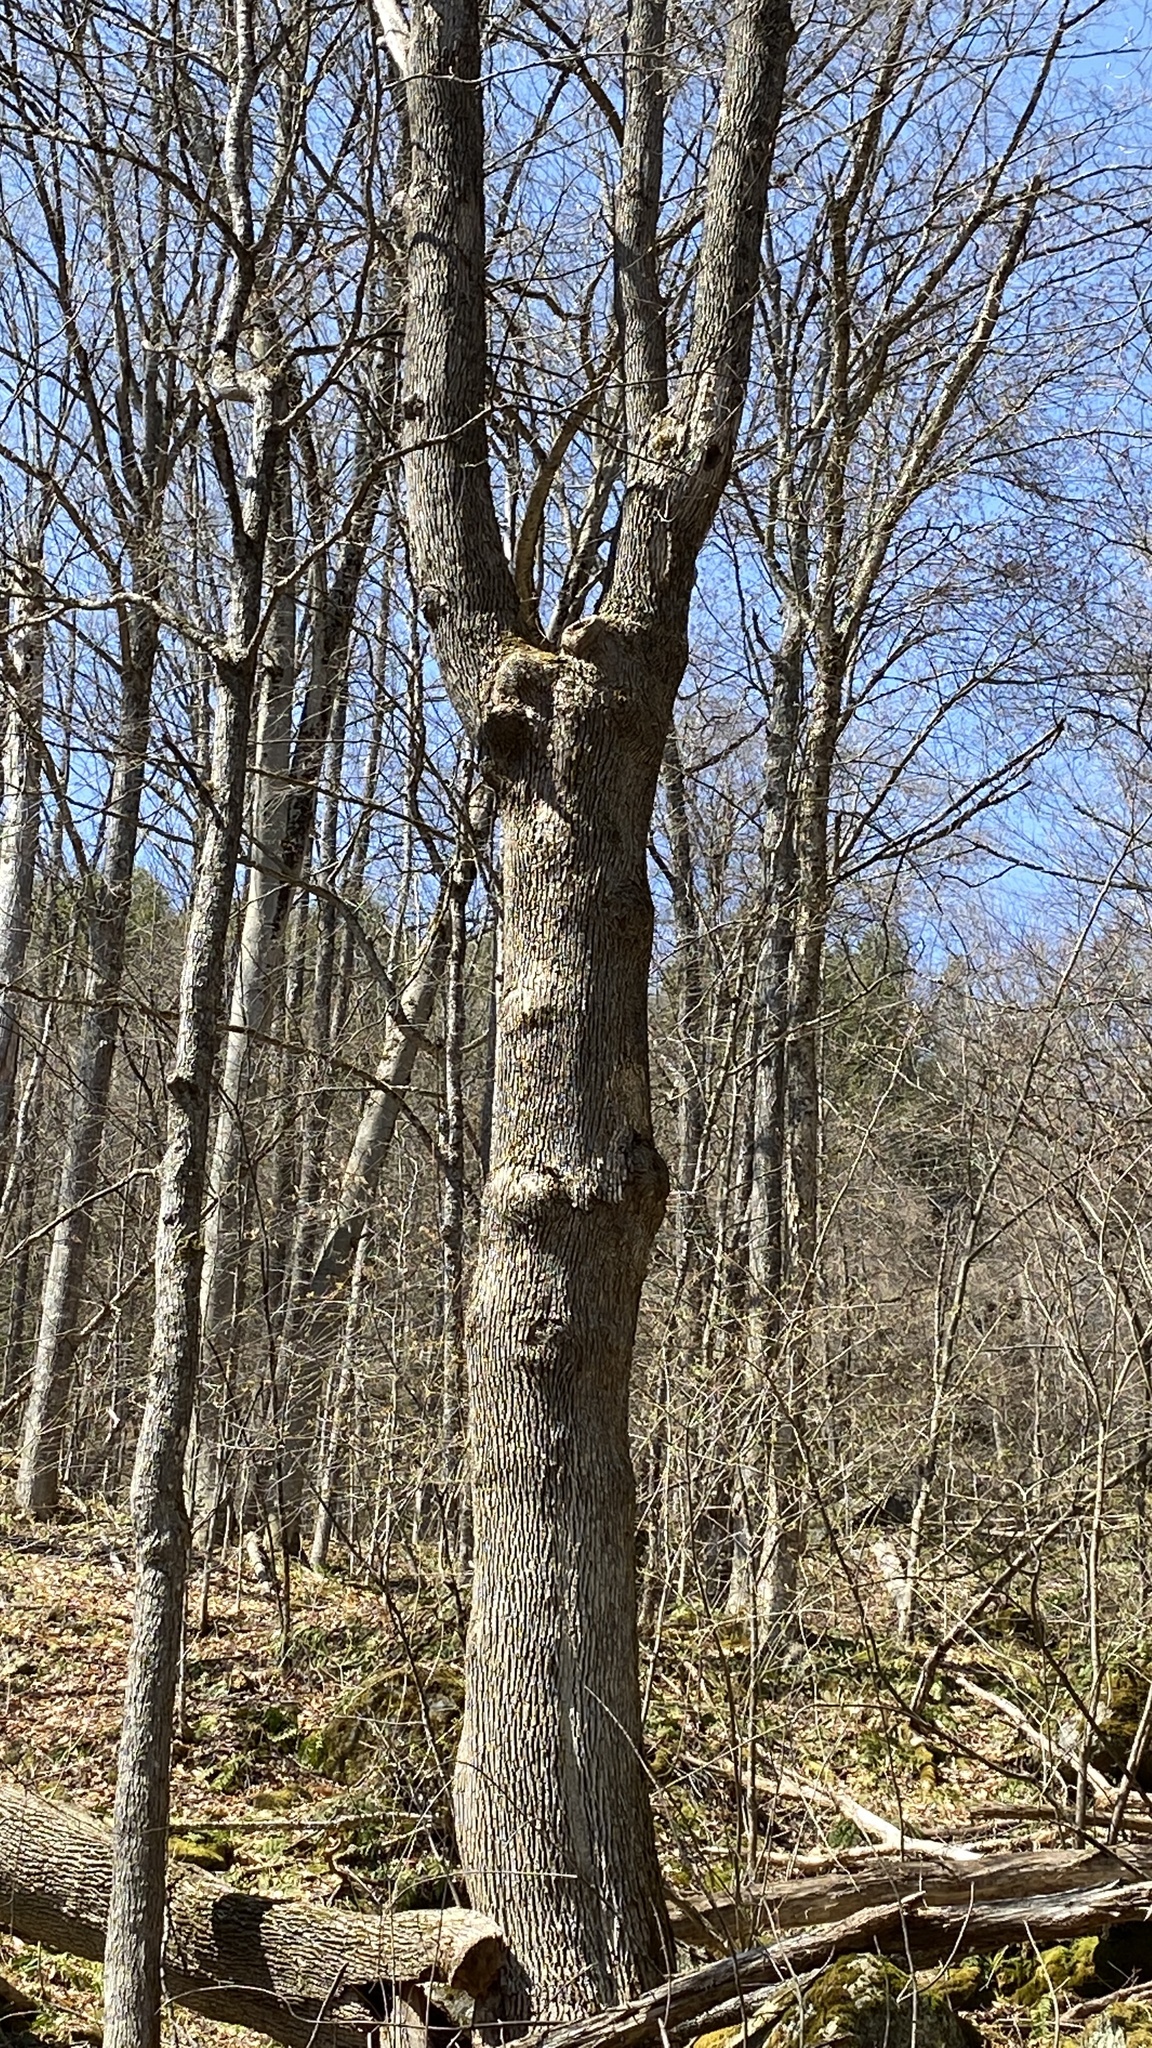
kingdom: Plantae
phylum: Tracheophyta
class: Magnoliopsida
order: Lamiales
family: Oleaceae
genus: Fraxinus
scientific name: Fraxinus americana
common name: White ash
